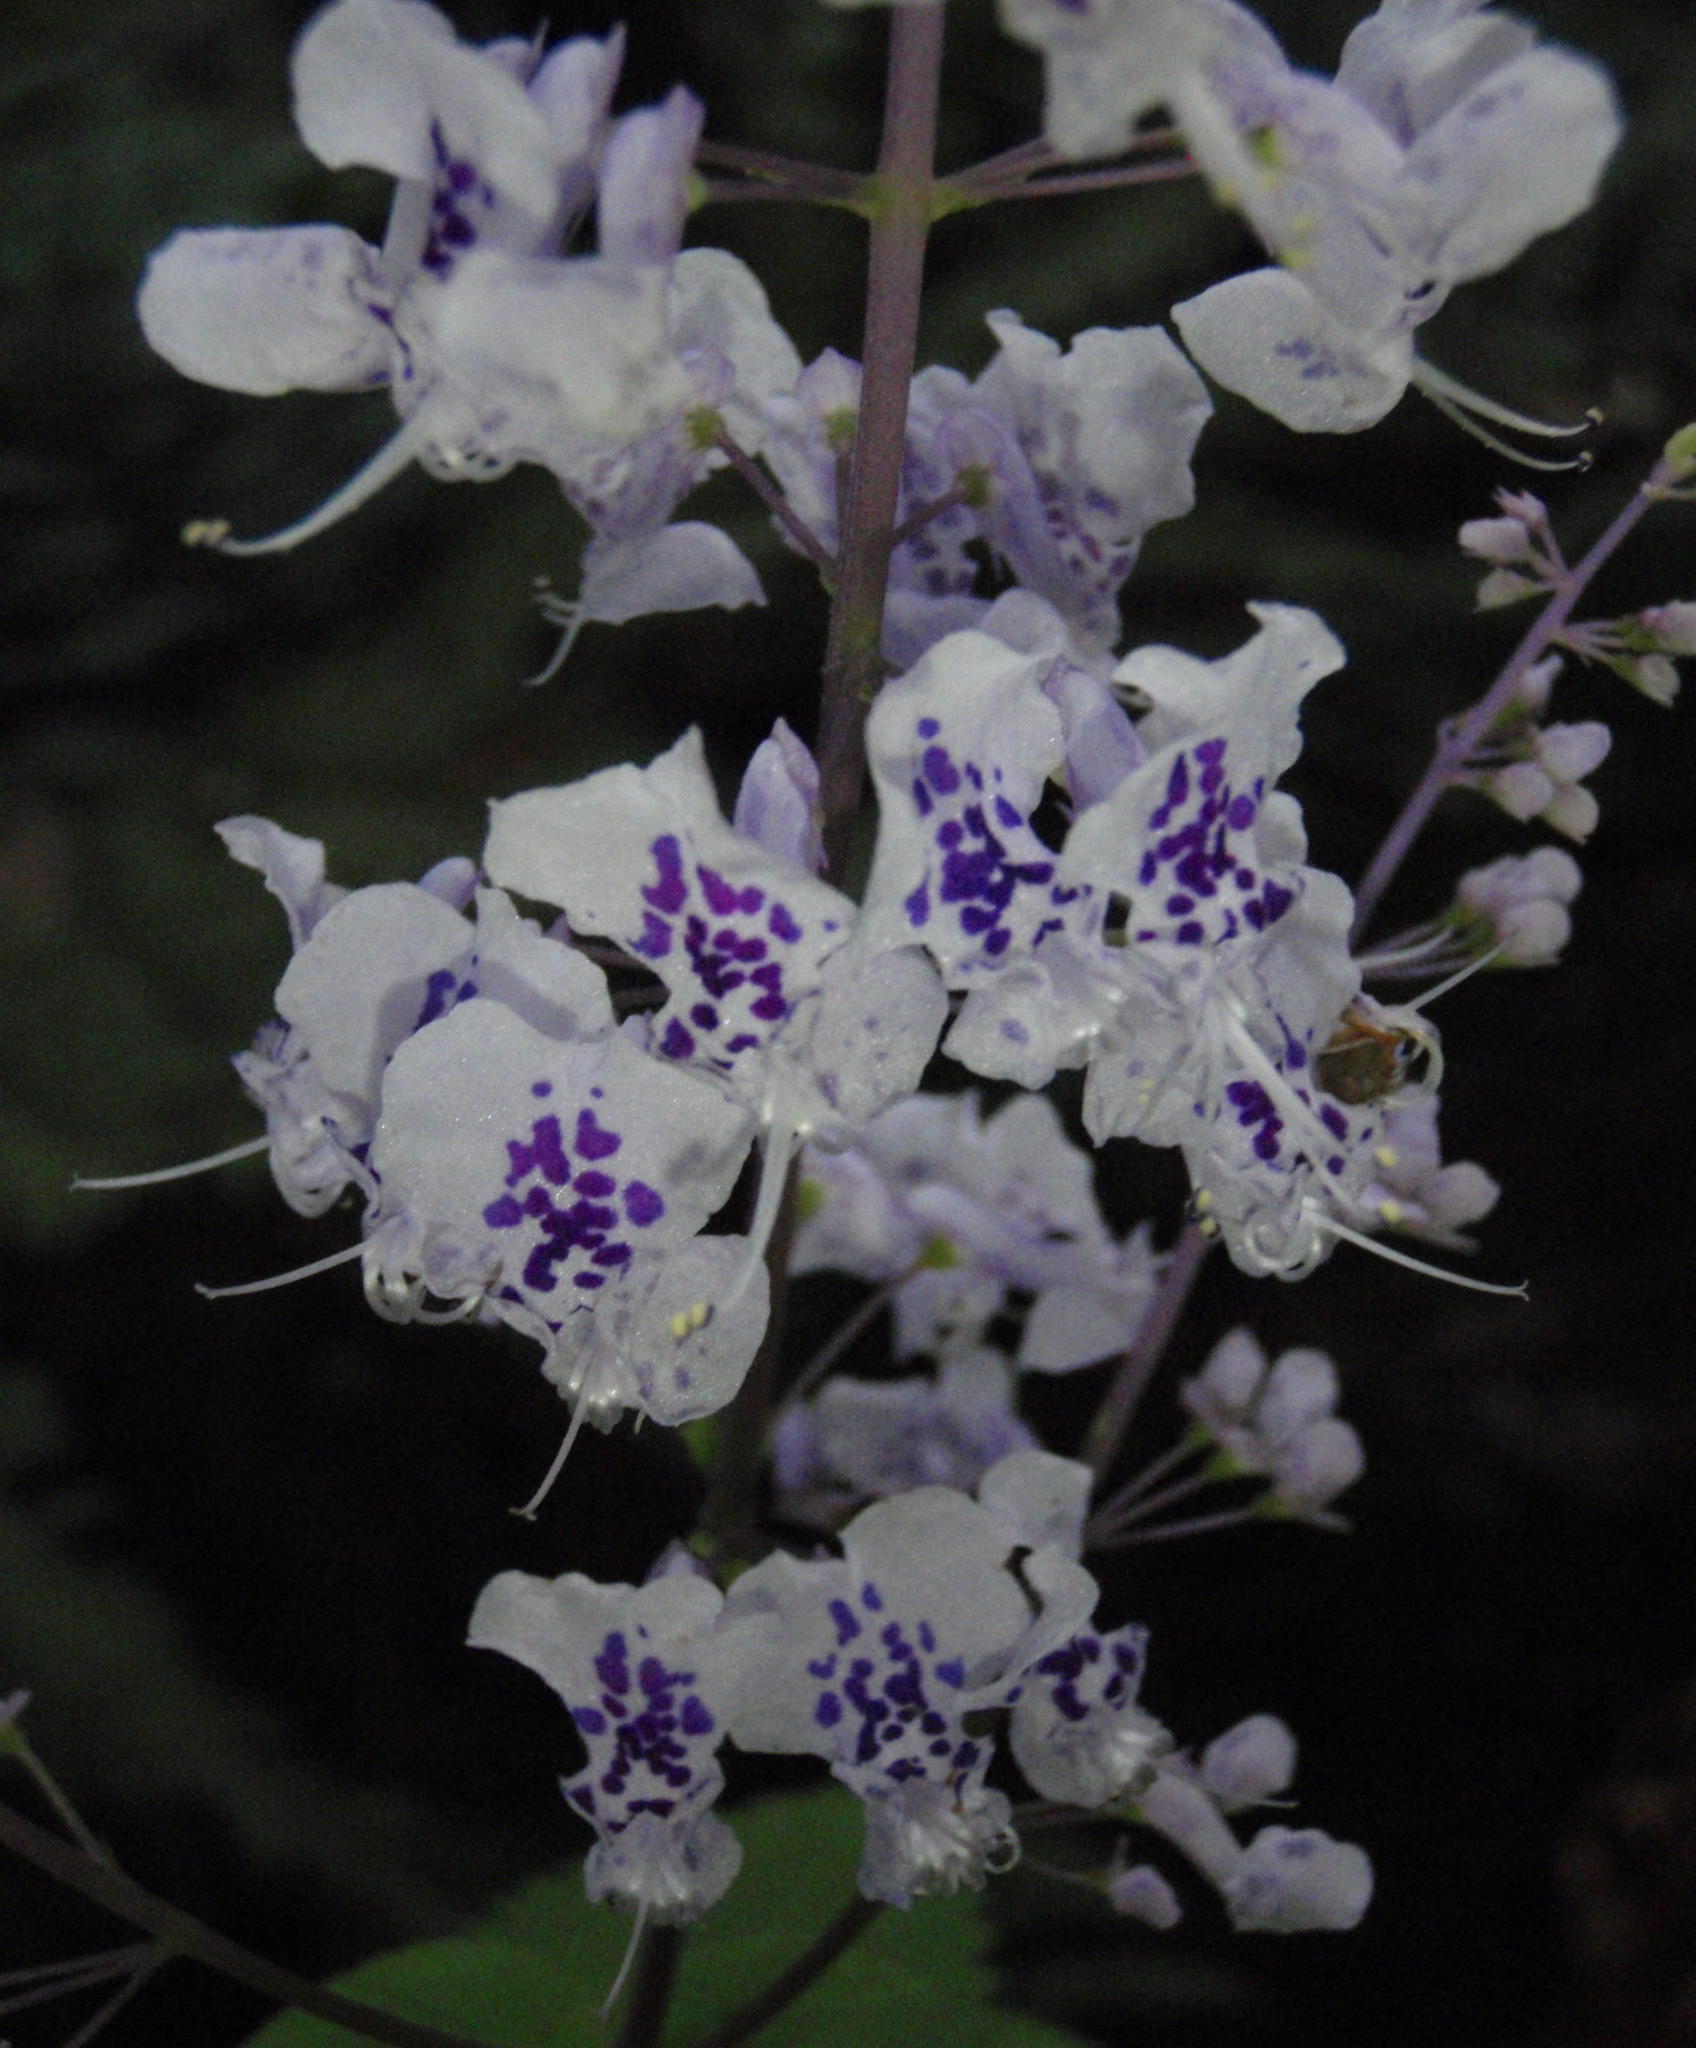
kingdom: Plantae
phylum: Tracheophyta
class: Magnoliopsida
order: Lamiales
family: Lamiaceae
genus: Plectranthus
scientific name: Plectranthus fruticosus
